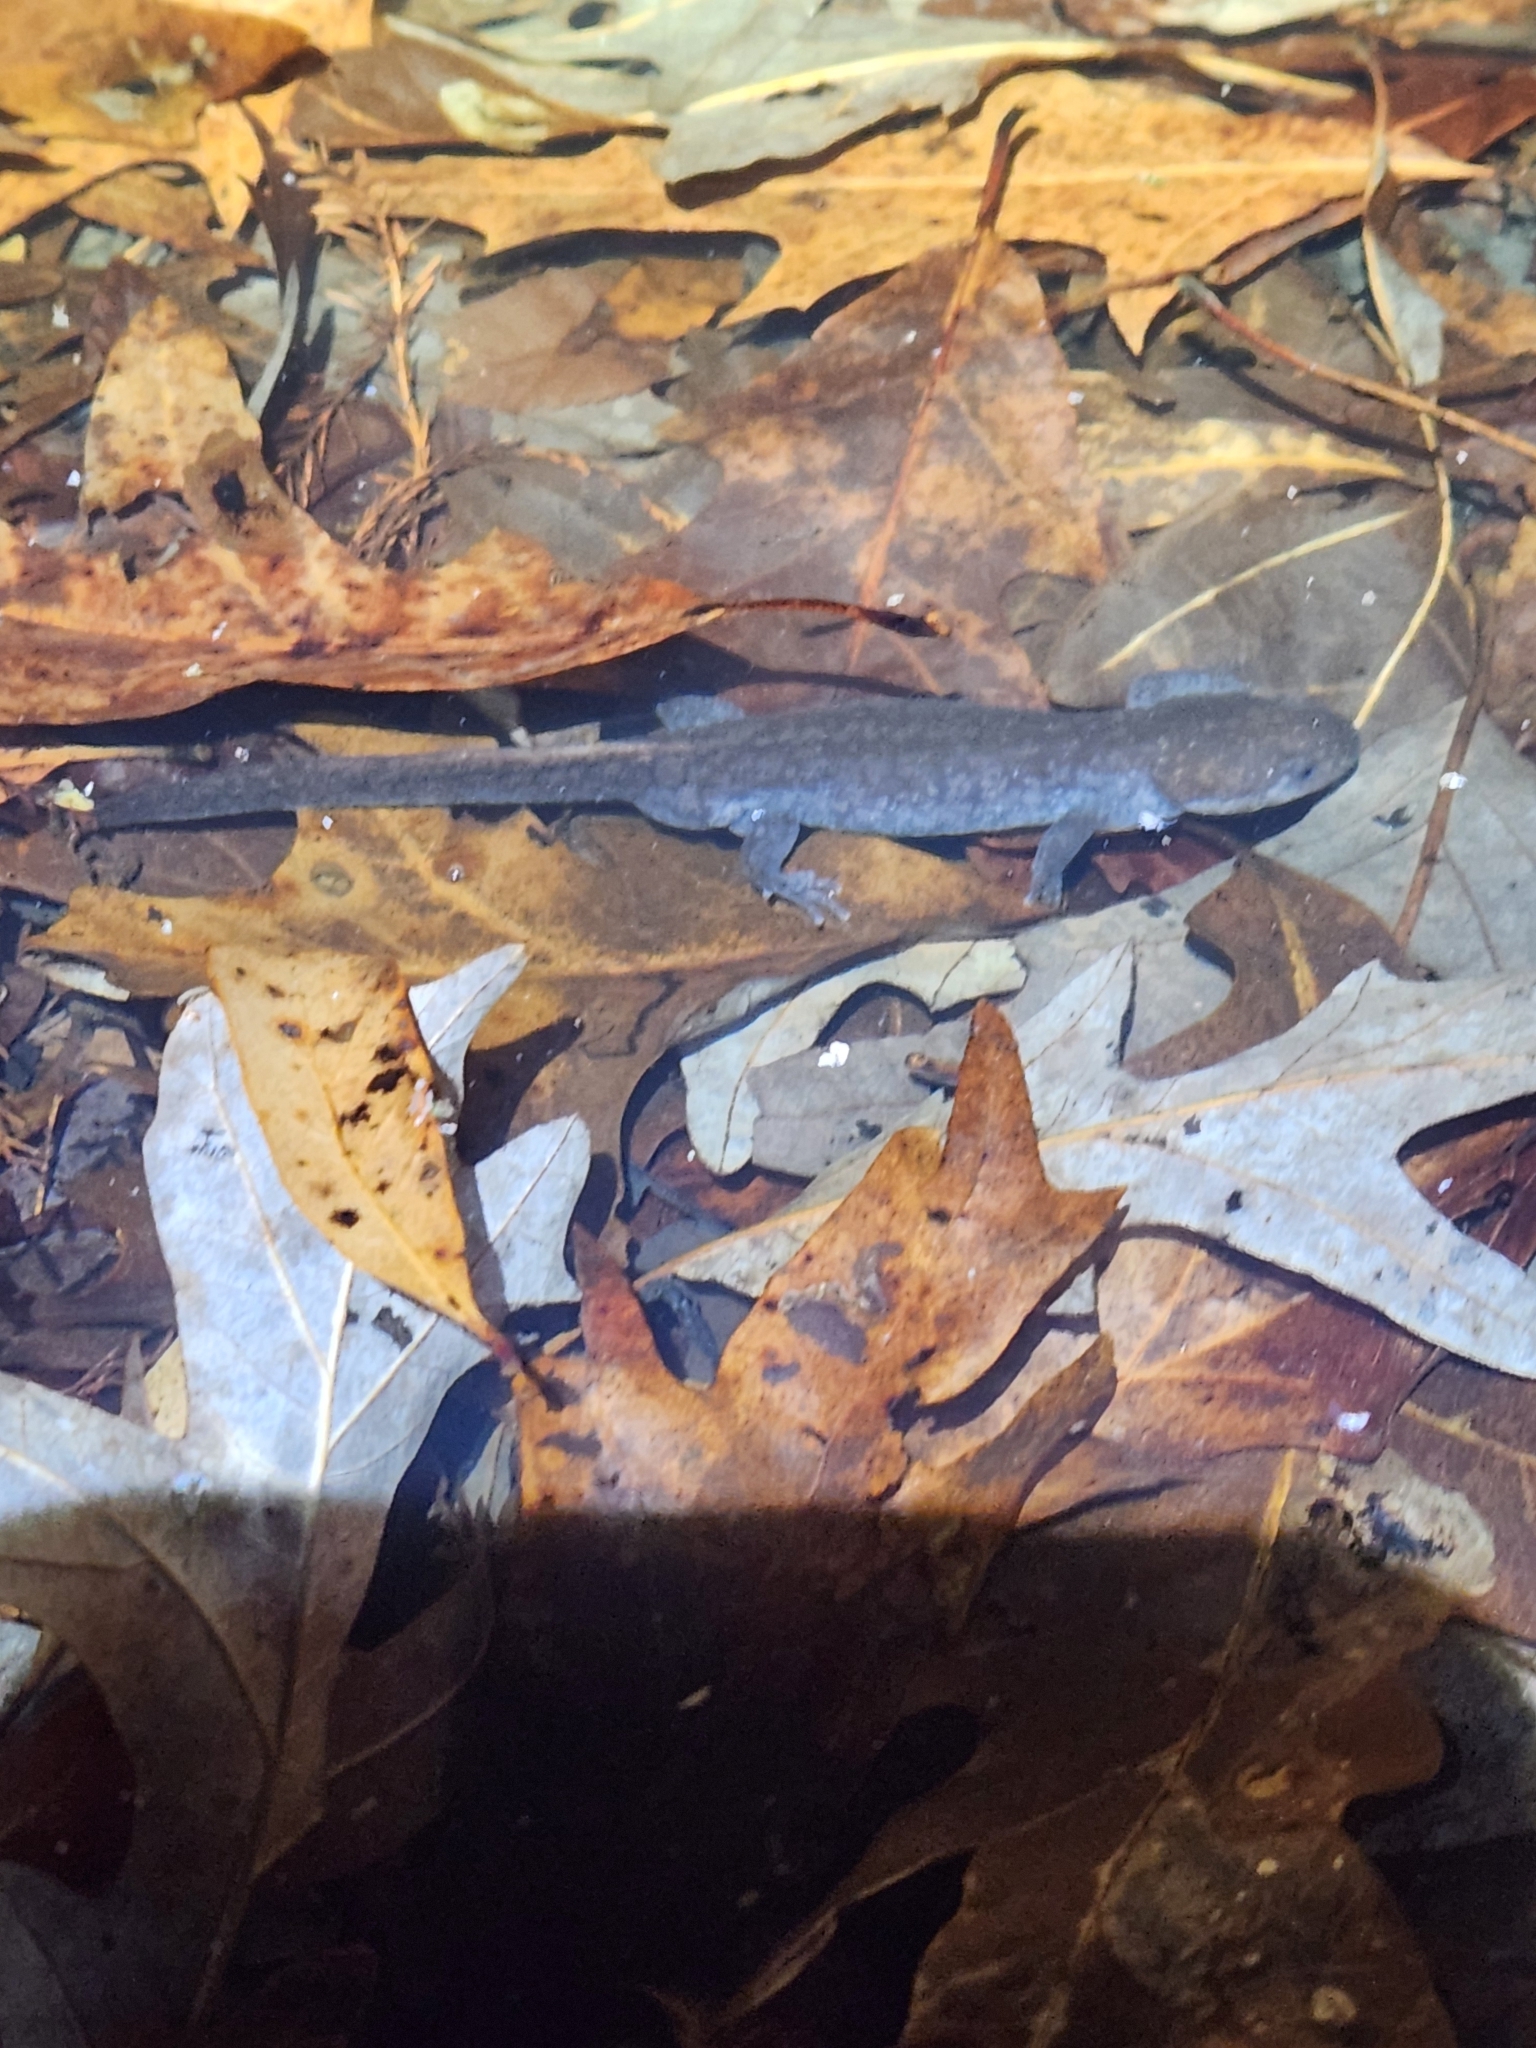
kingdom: Animalia
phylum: Chordata
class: Amphibia
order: Caudata
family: Ambystomatidae
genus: Ambystoma
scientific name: Ambystoma talpoideum
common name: Mole salamander
